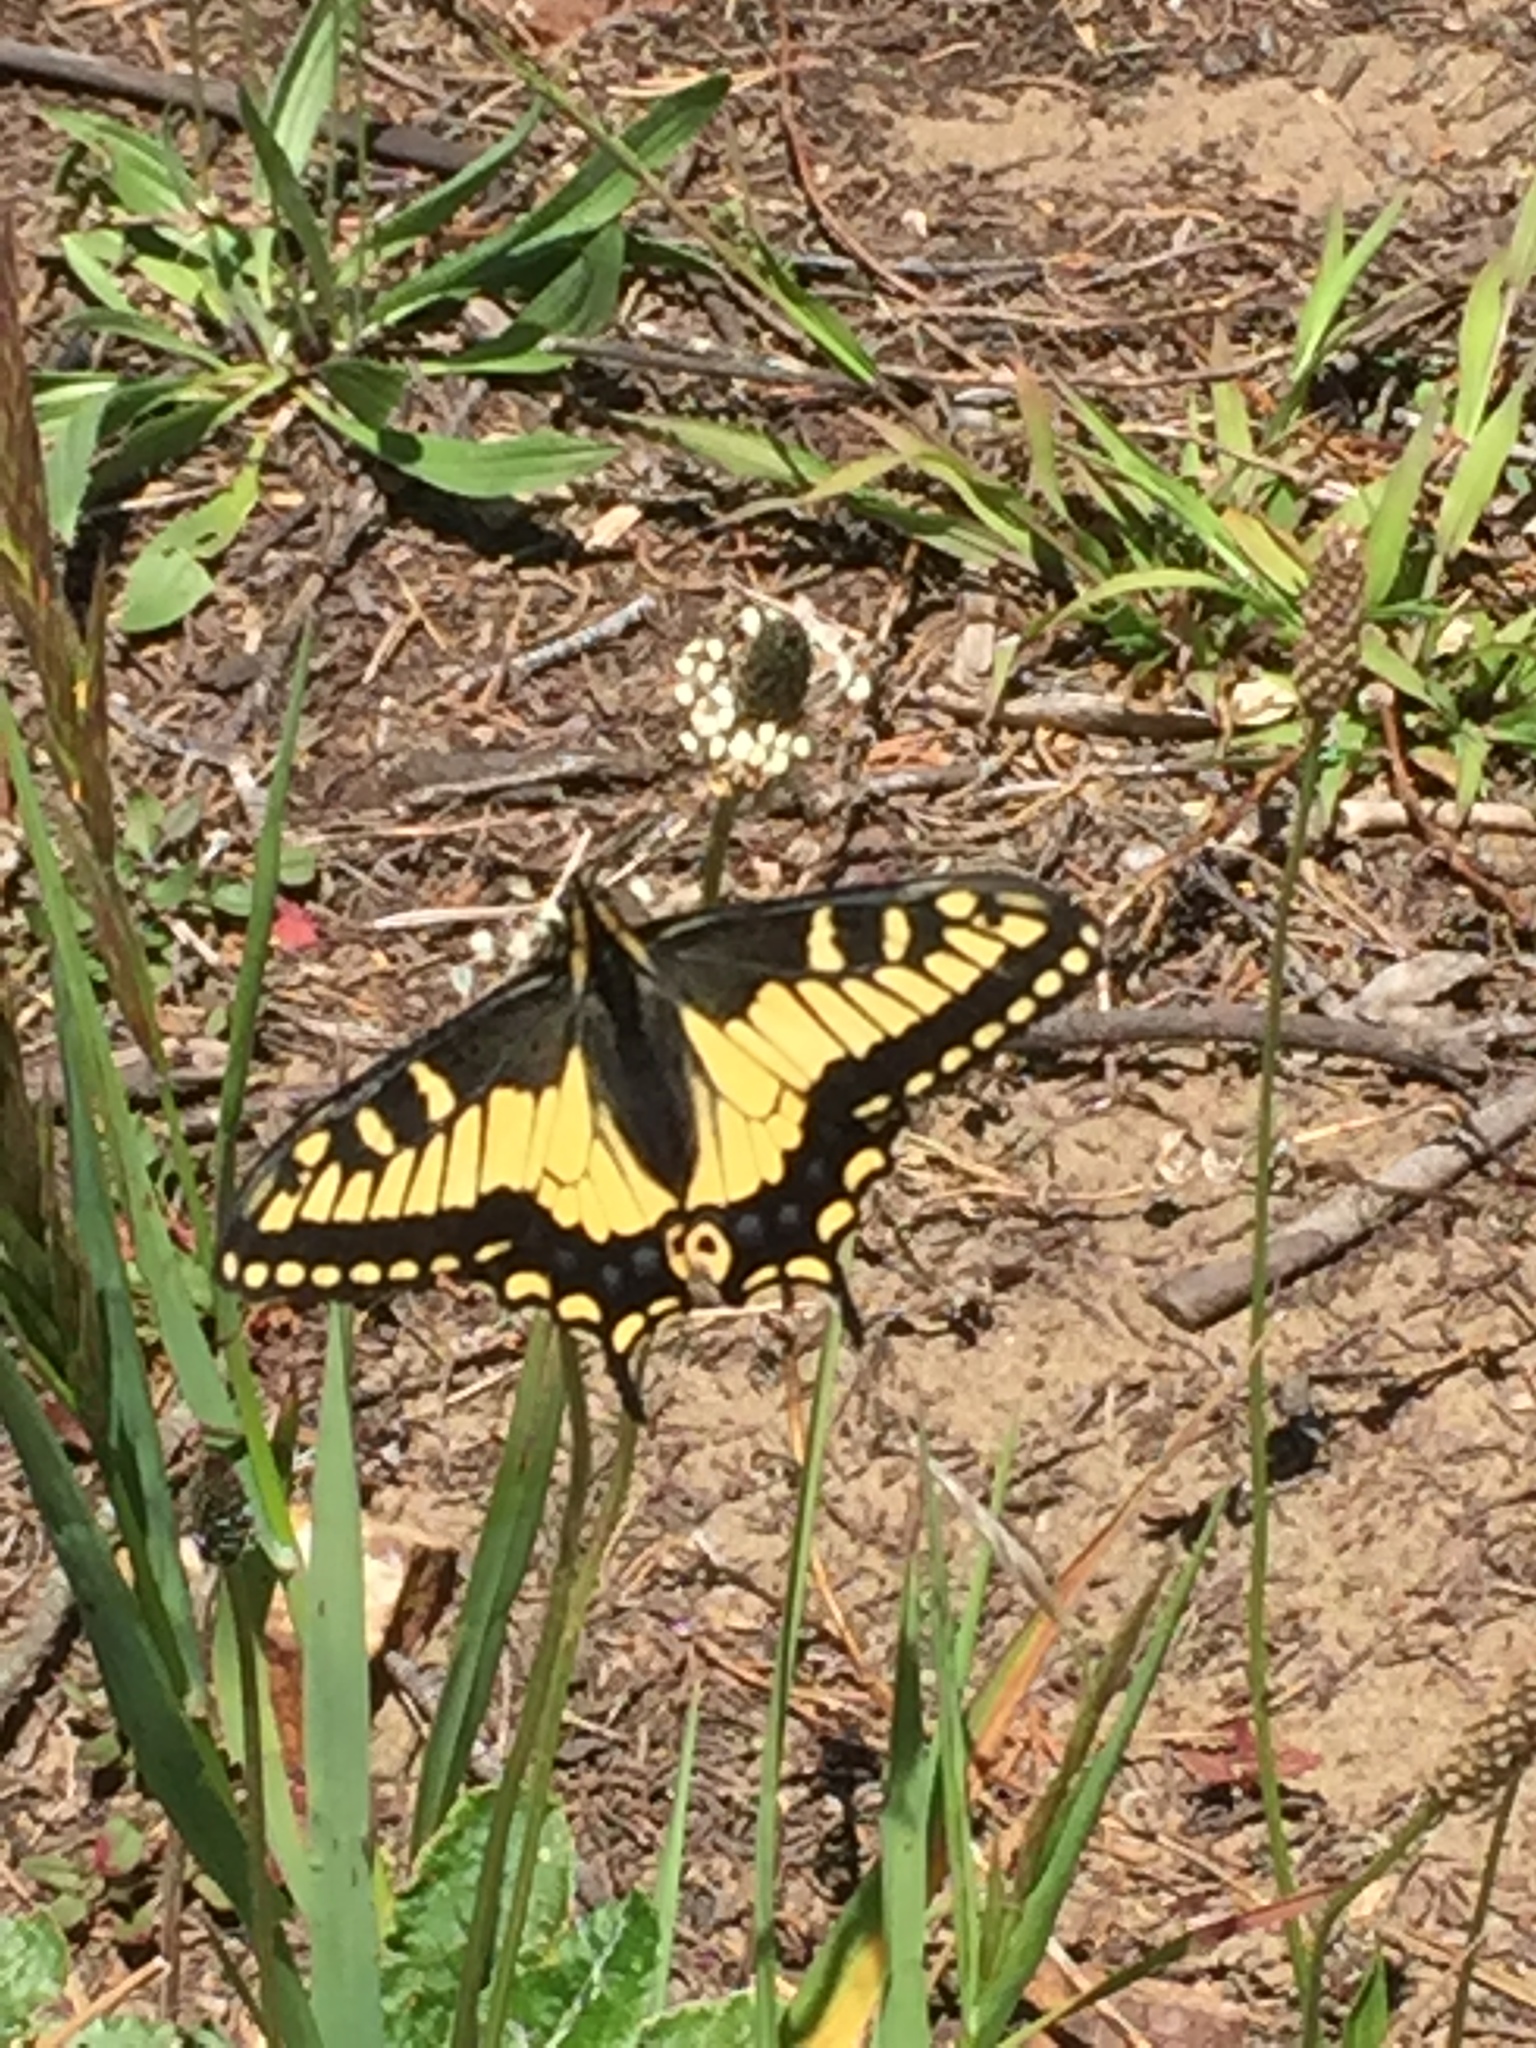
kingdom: Animalia
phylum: Arthropoda
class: Insecta
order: Lepidoptera
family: Papilionidae
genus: Papilio
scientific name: Papilio zelicaon
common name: Anise swallowtail
